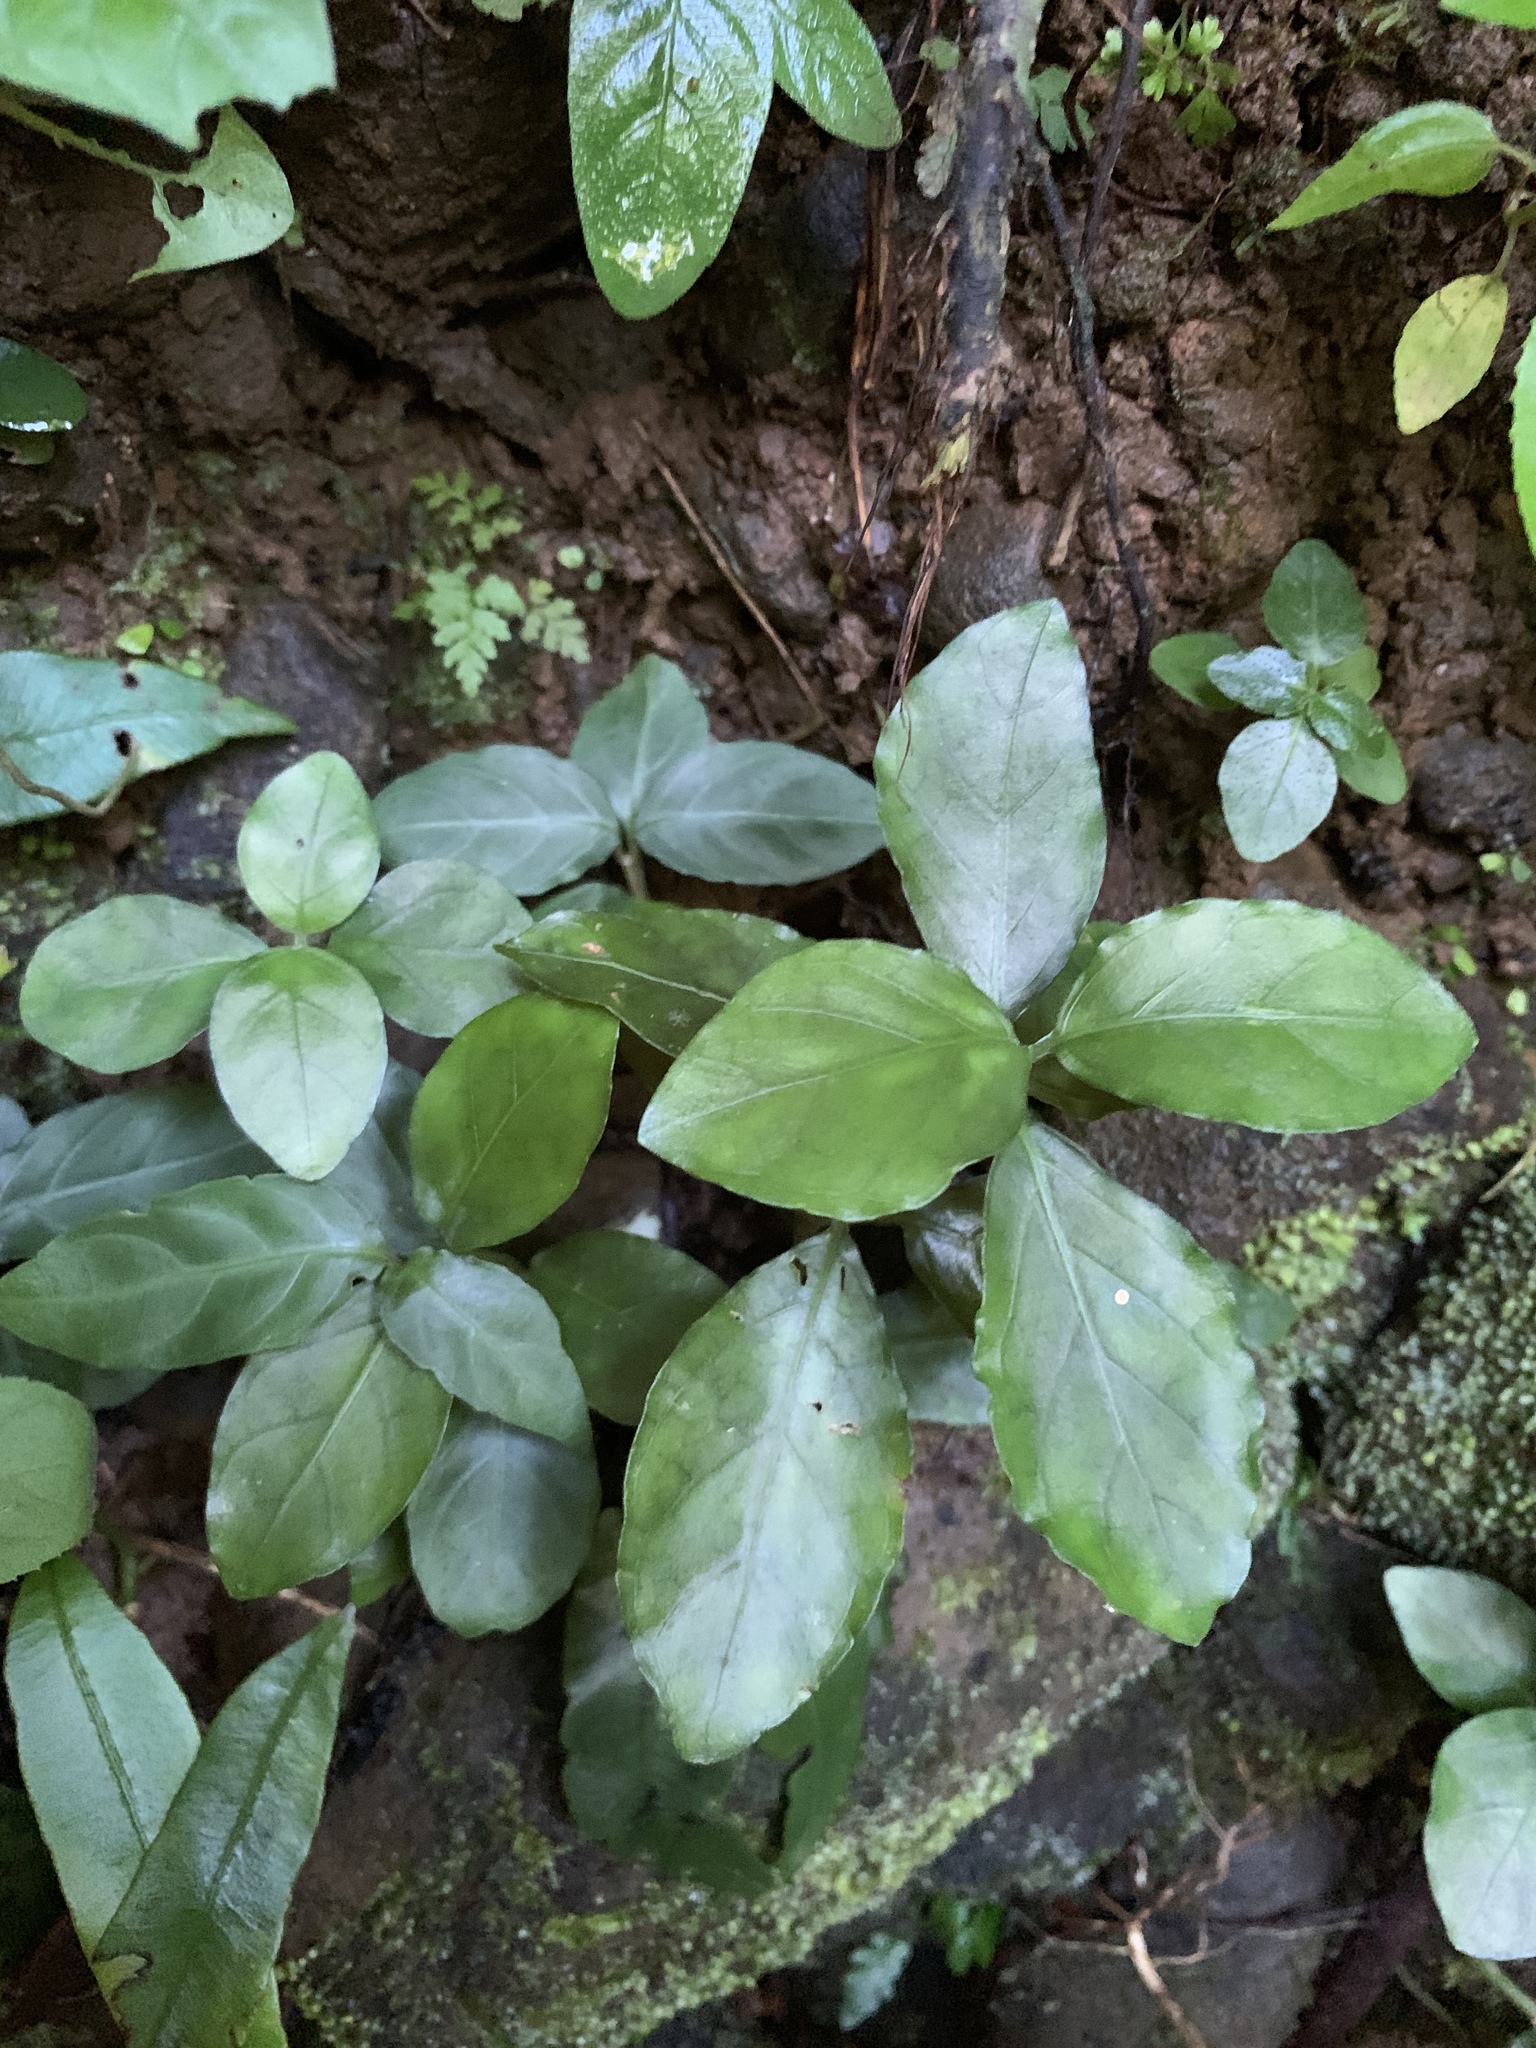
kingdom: Plantae
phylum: Tracheophyta
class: Magnoliopsida
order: Lamiales
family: Acanthaceae
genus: Codonacanthus
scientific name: Codonacanthus pauciflorus
